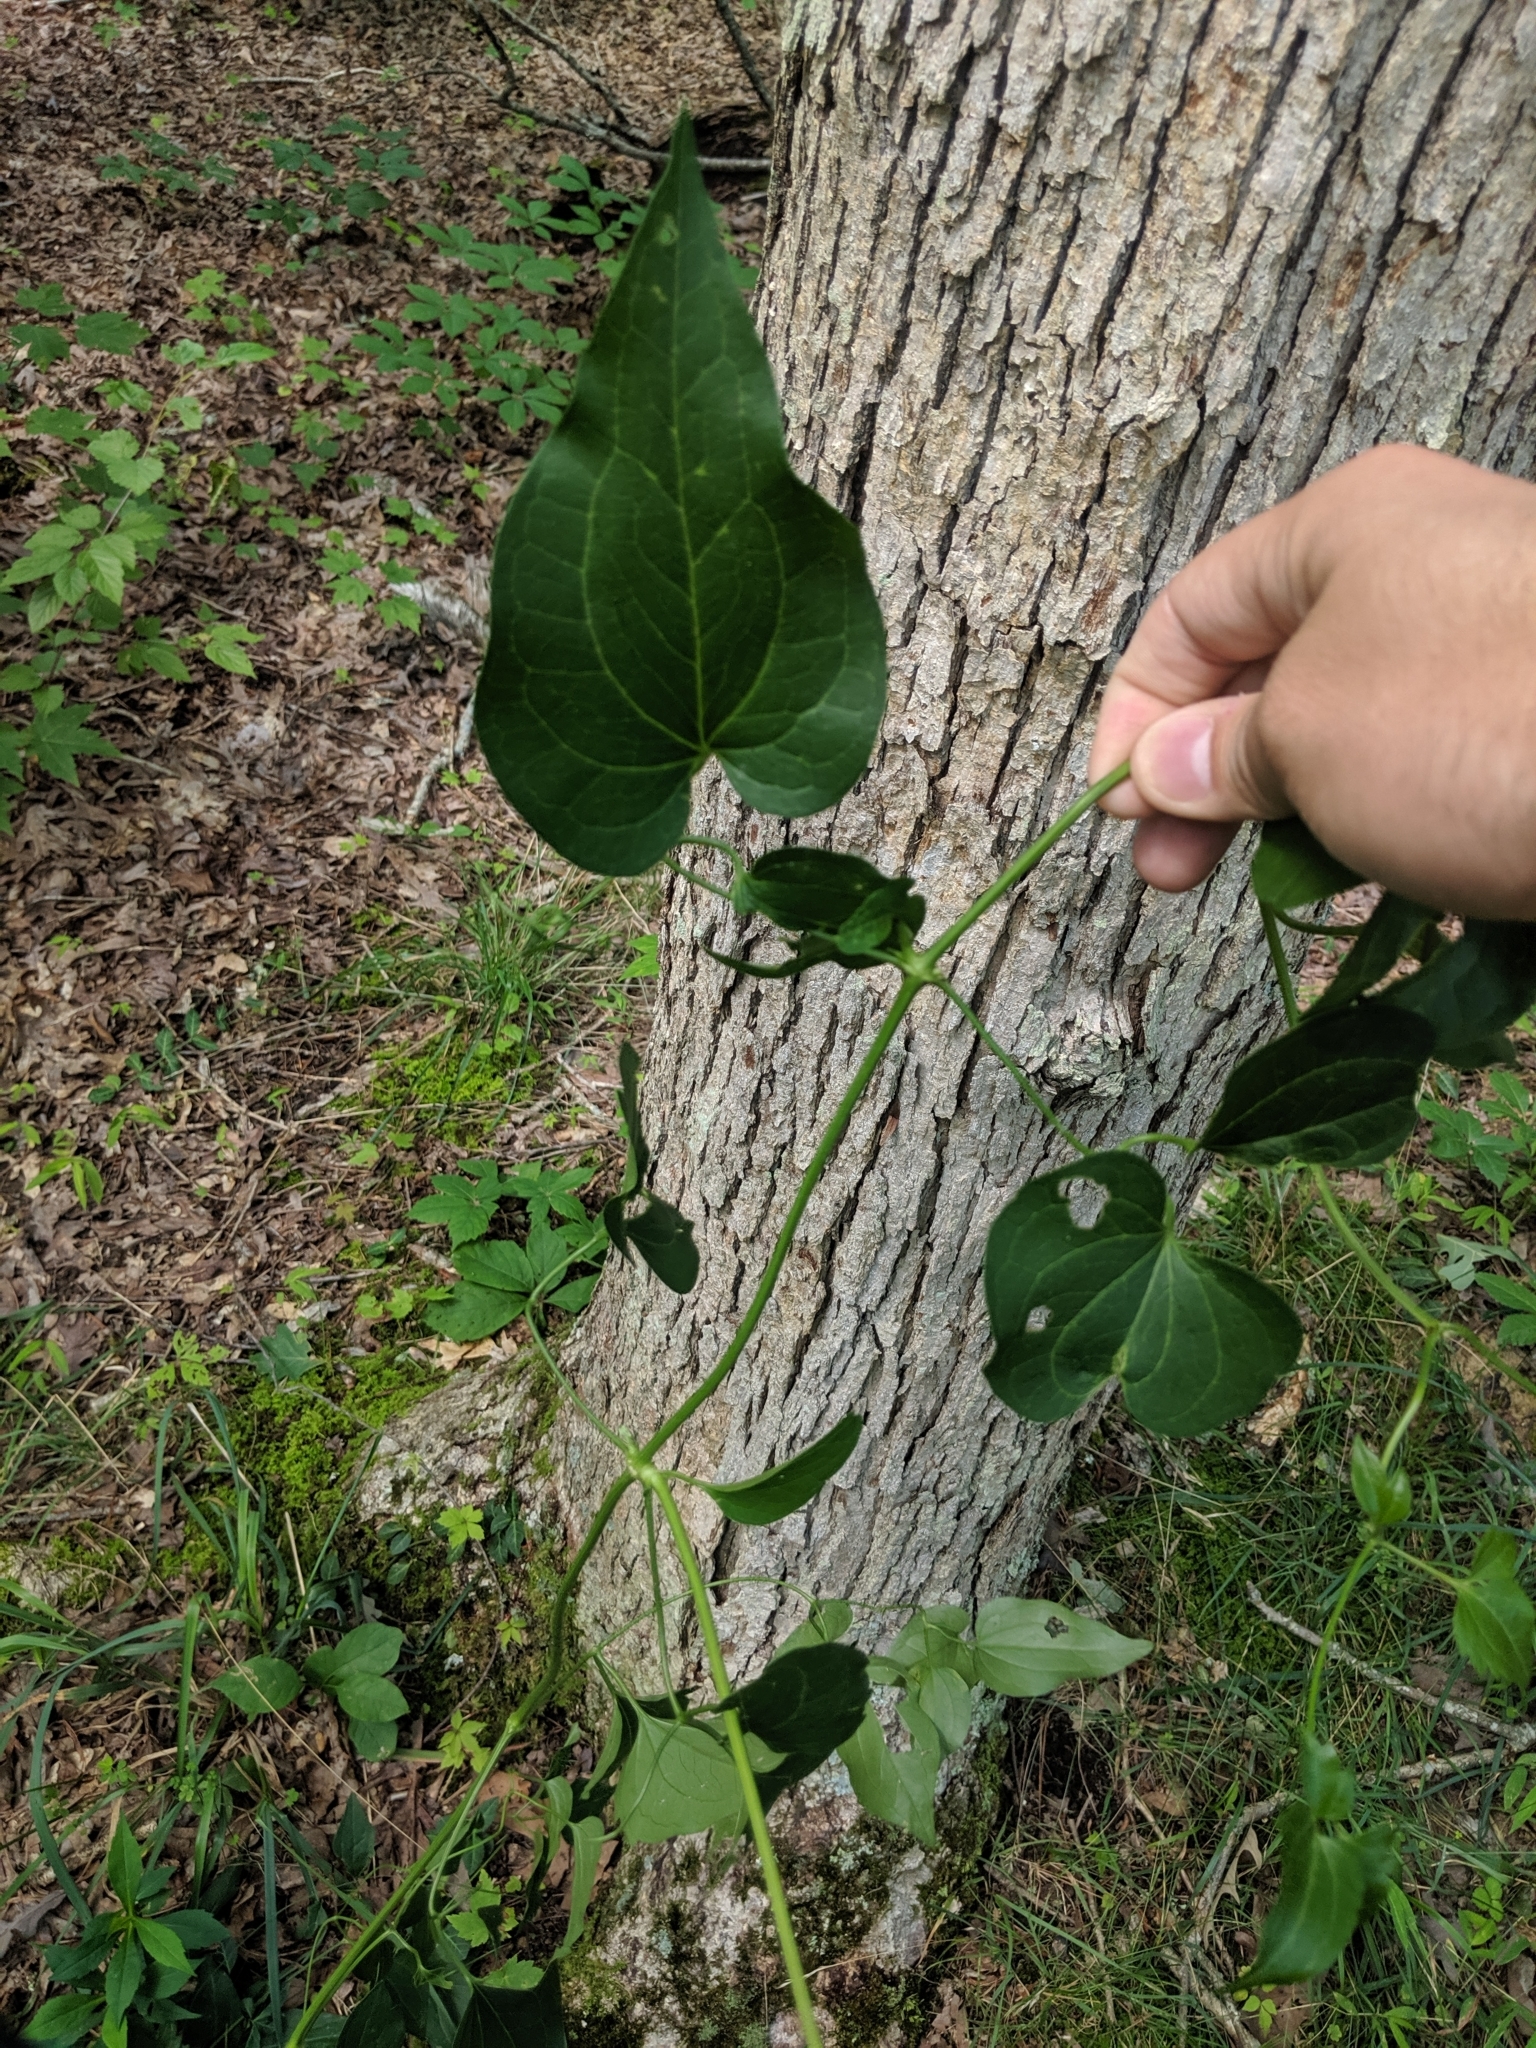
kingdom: Plantae
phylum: Tracheophyta
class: Magnoliopsida
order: Ranunculales
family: Ranunculaceae
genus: Clematis
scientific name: Clematis terniflora
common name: Sweet autumn clematis
